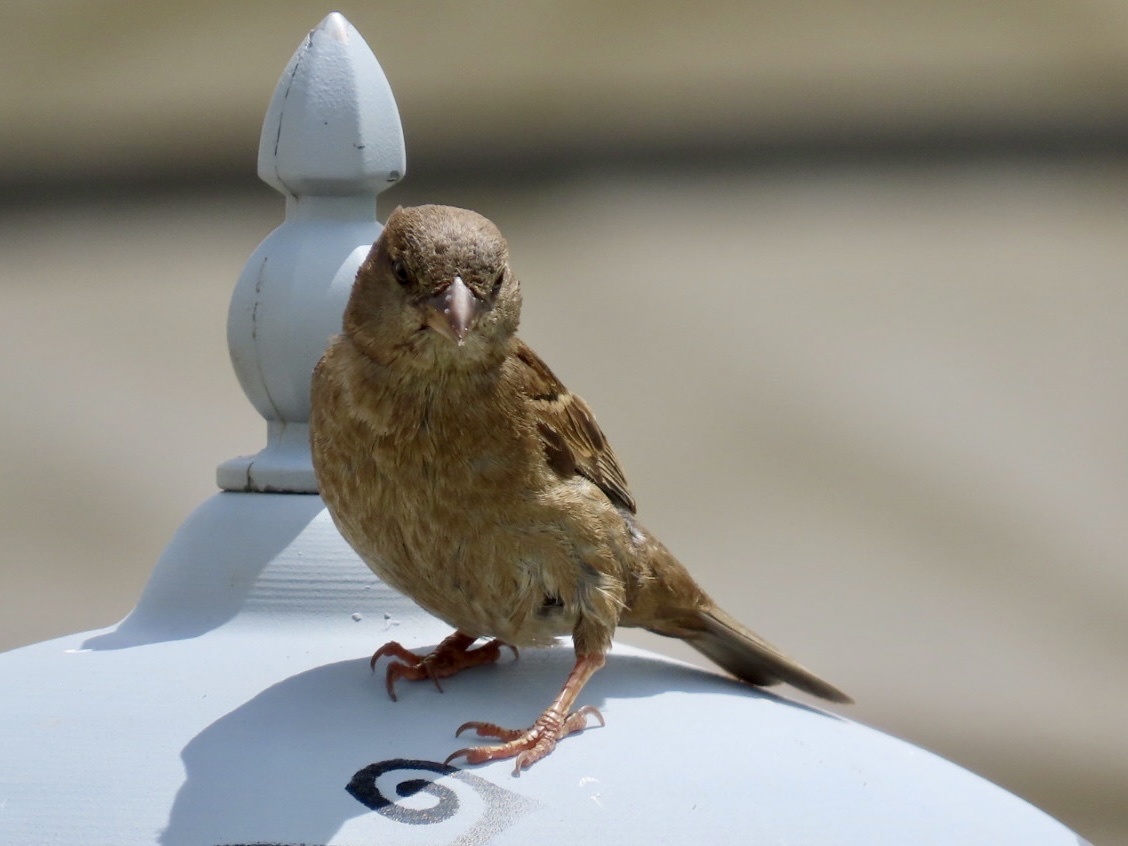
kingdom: Animalia
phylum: Chordata
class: Aves
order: Passeriformes
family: Passeridae
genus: Passer
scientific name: Passer domesticus
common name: House sparrow
